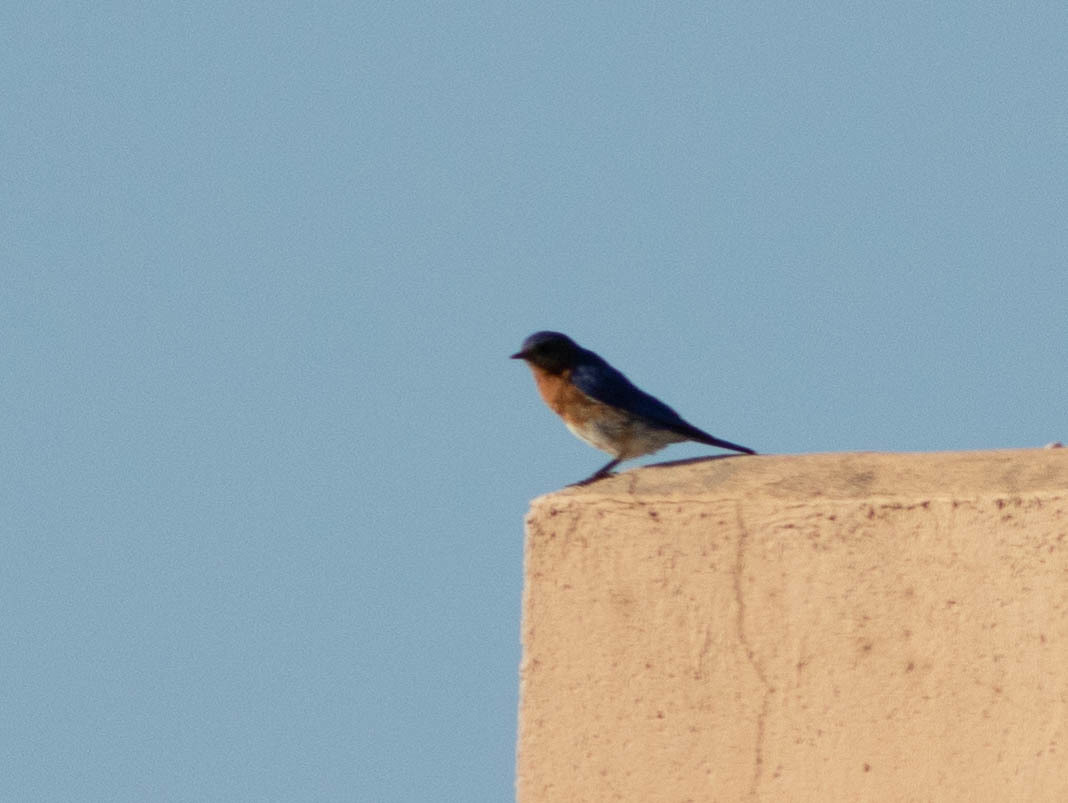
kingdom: Animalia
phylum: Chordata
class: Aves
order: Passeriformes
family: Turdidae
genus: Sialia
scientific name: Sialia sialis
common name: Eastern bluebird
